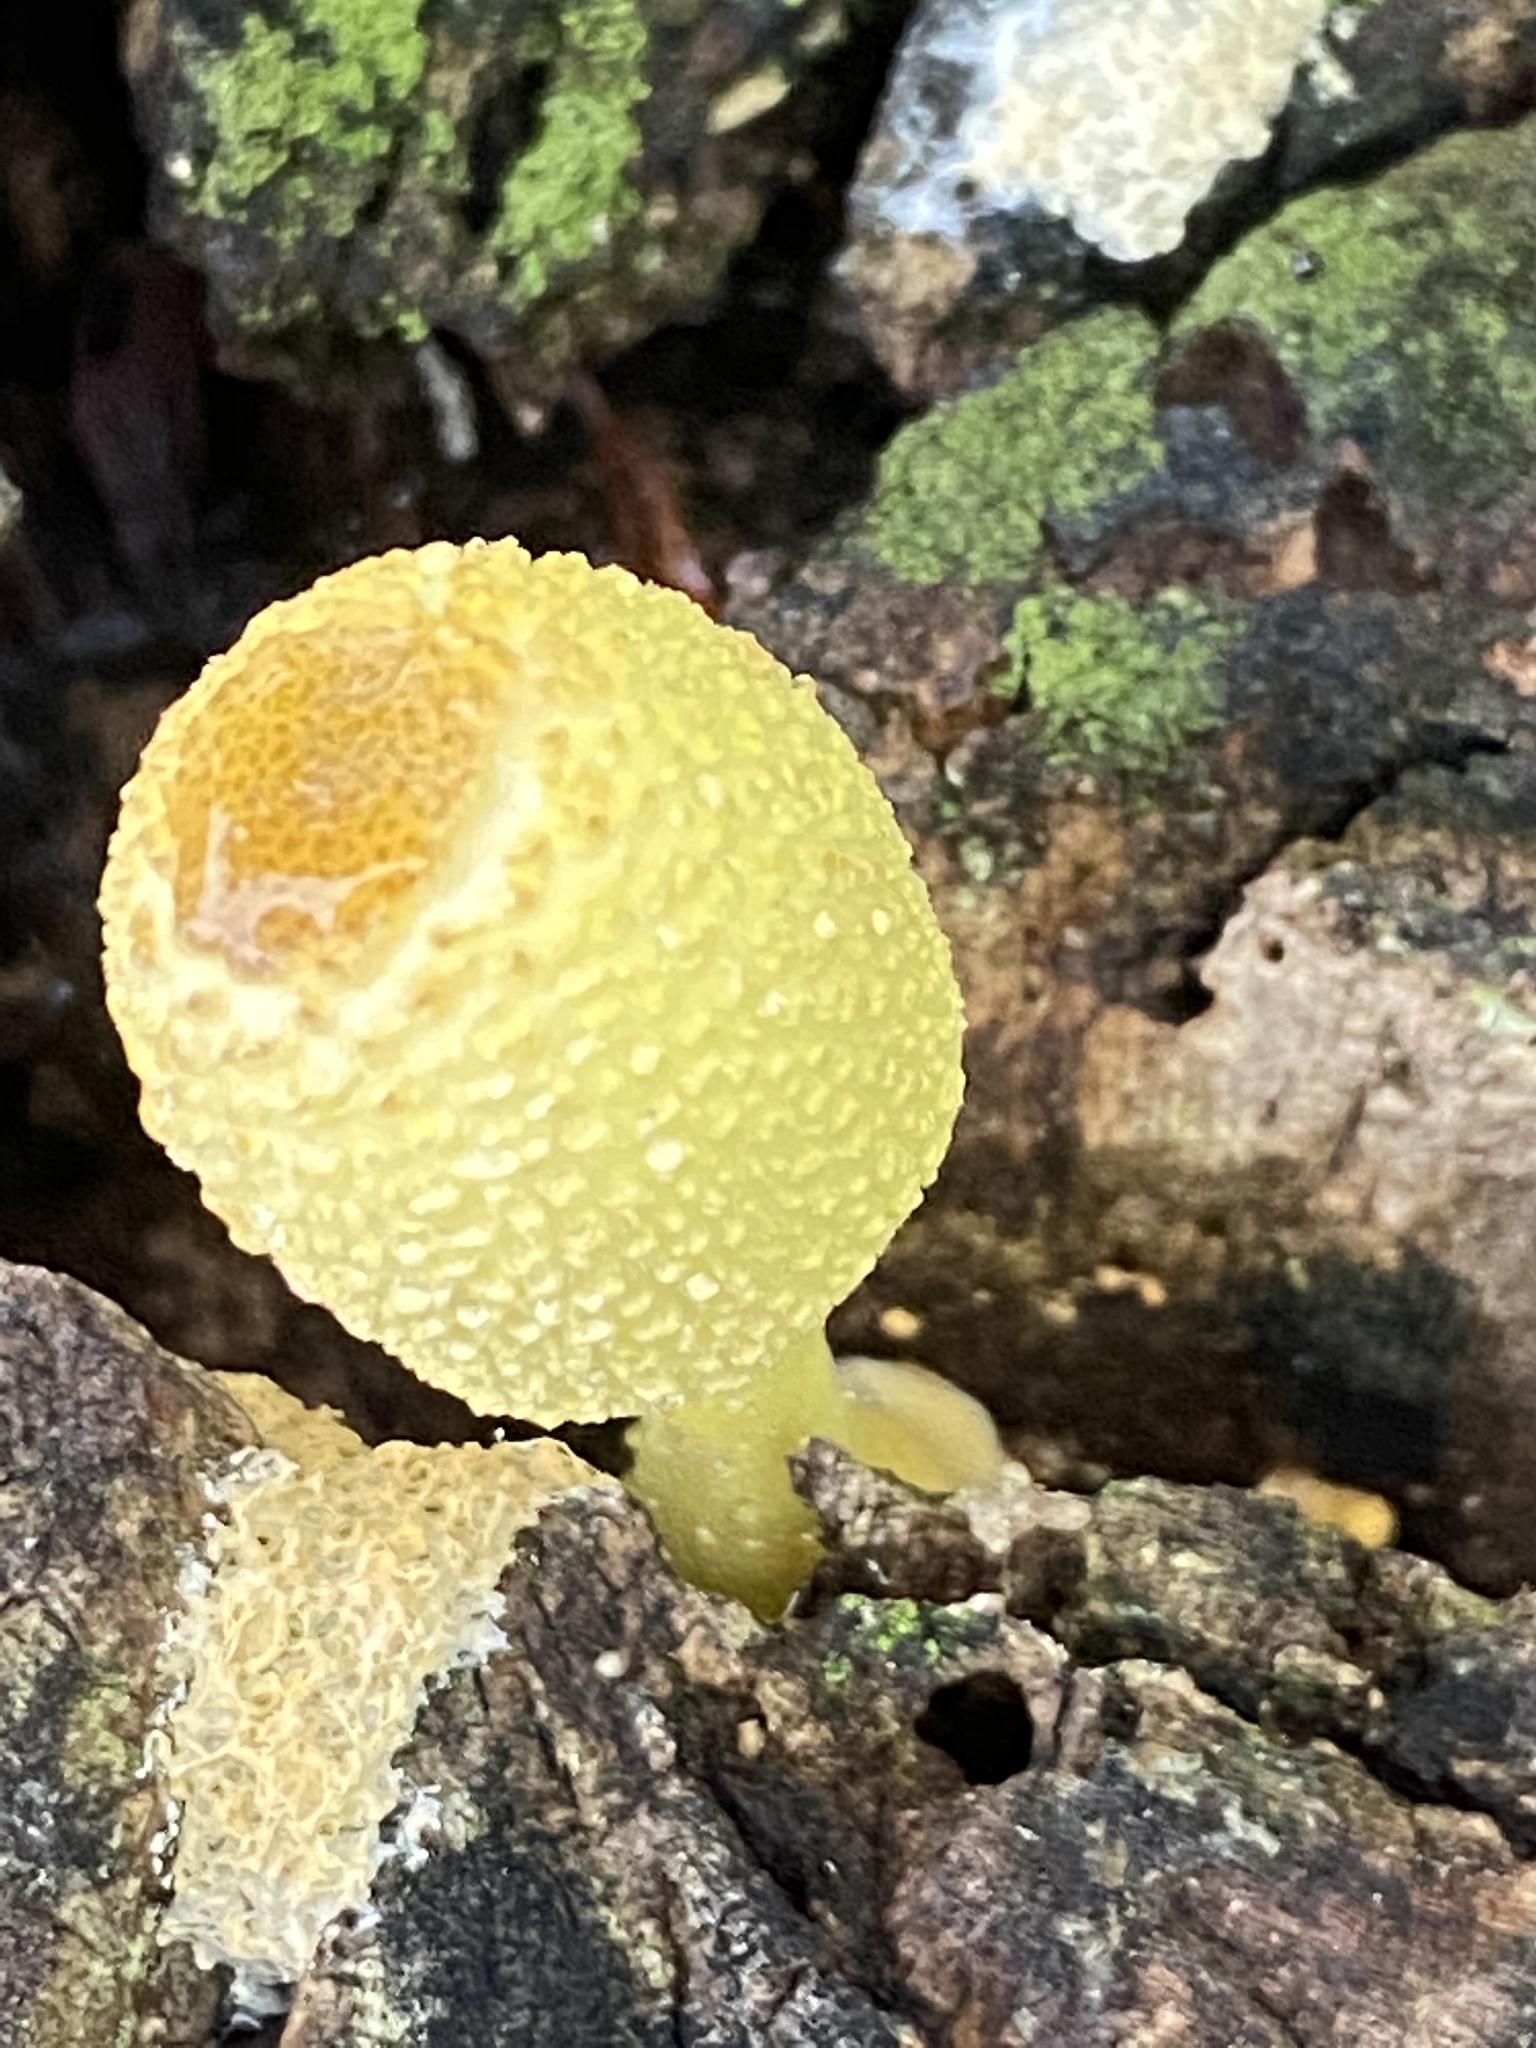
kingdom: Fungi
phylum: Basidiomycota
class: Agaricomycetes
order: Agaricales
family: Agaricaceae
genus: Leucocoprinus
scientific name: Leucocoprinus birnbaumii
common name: Plantpot dapperling
